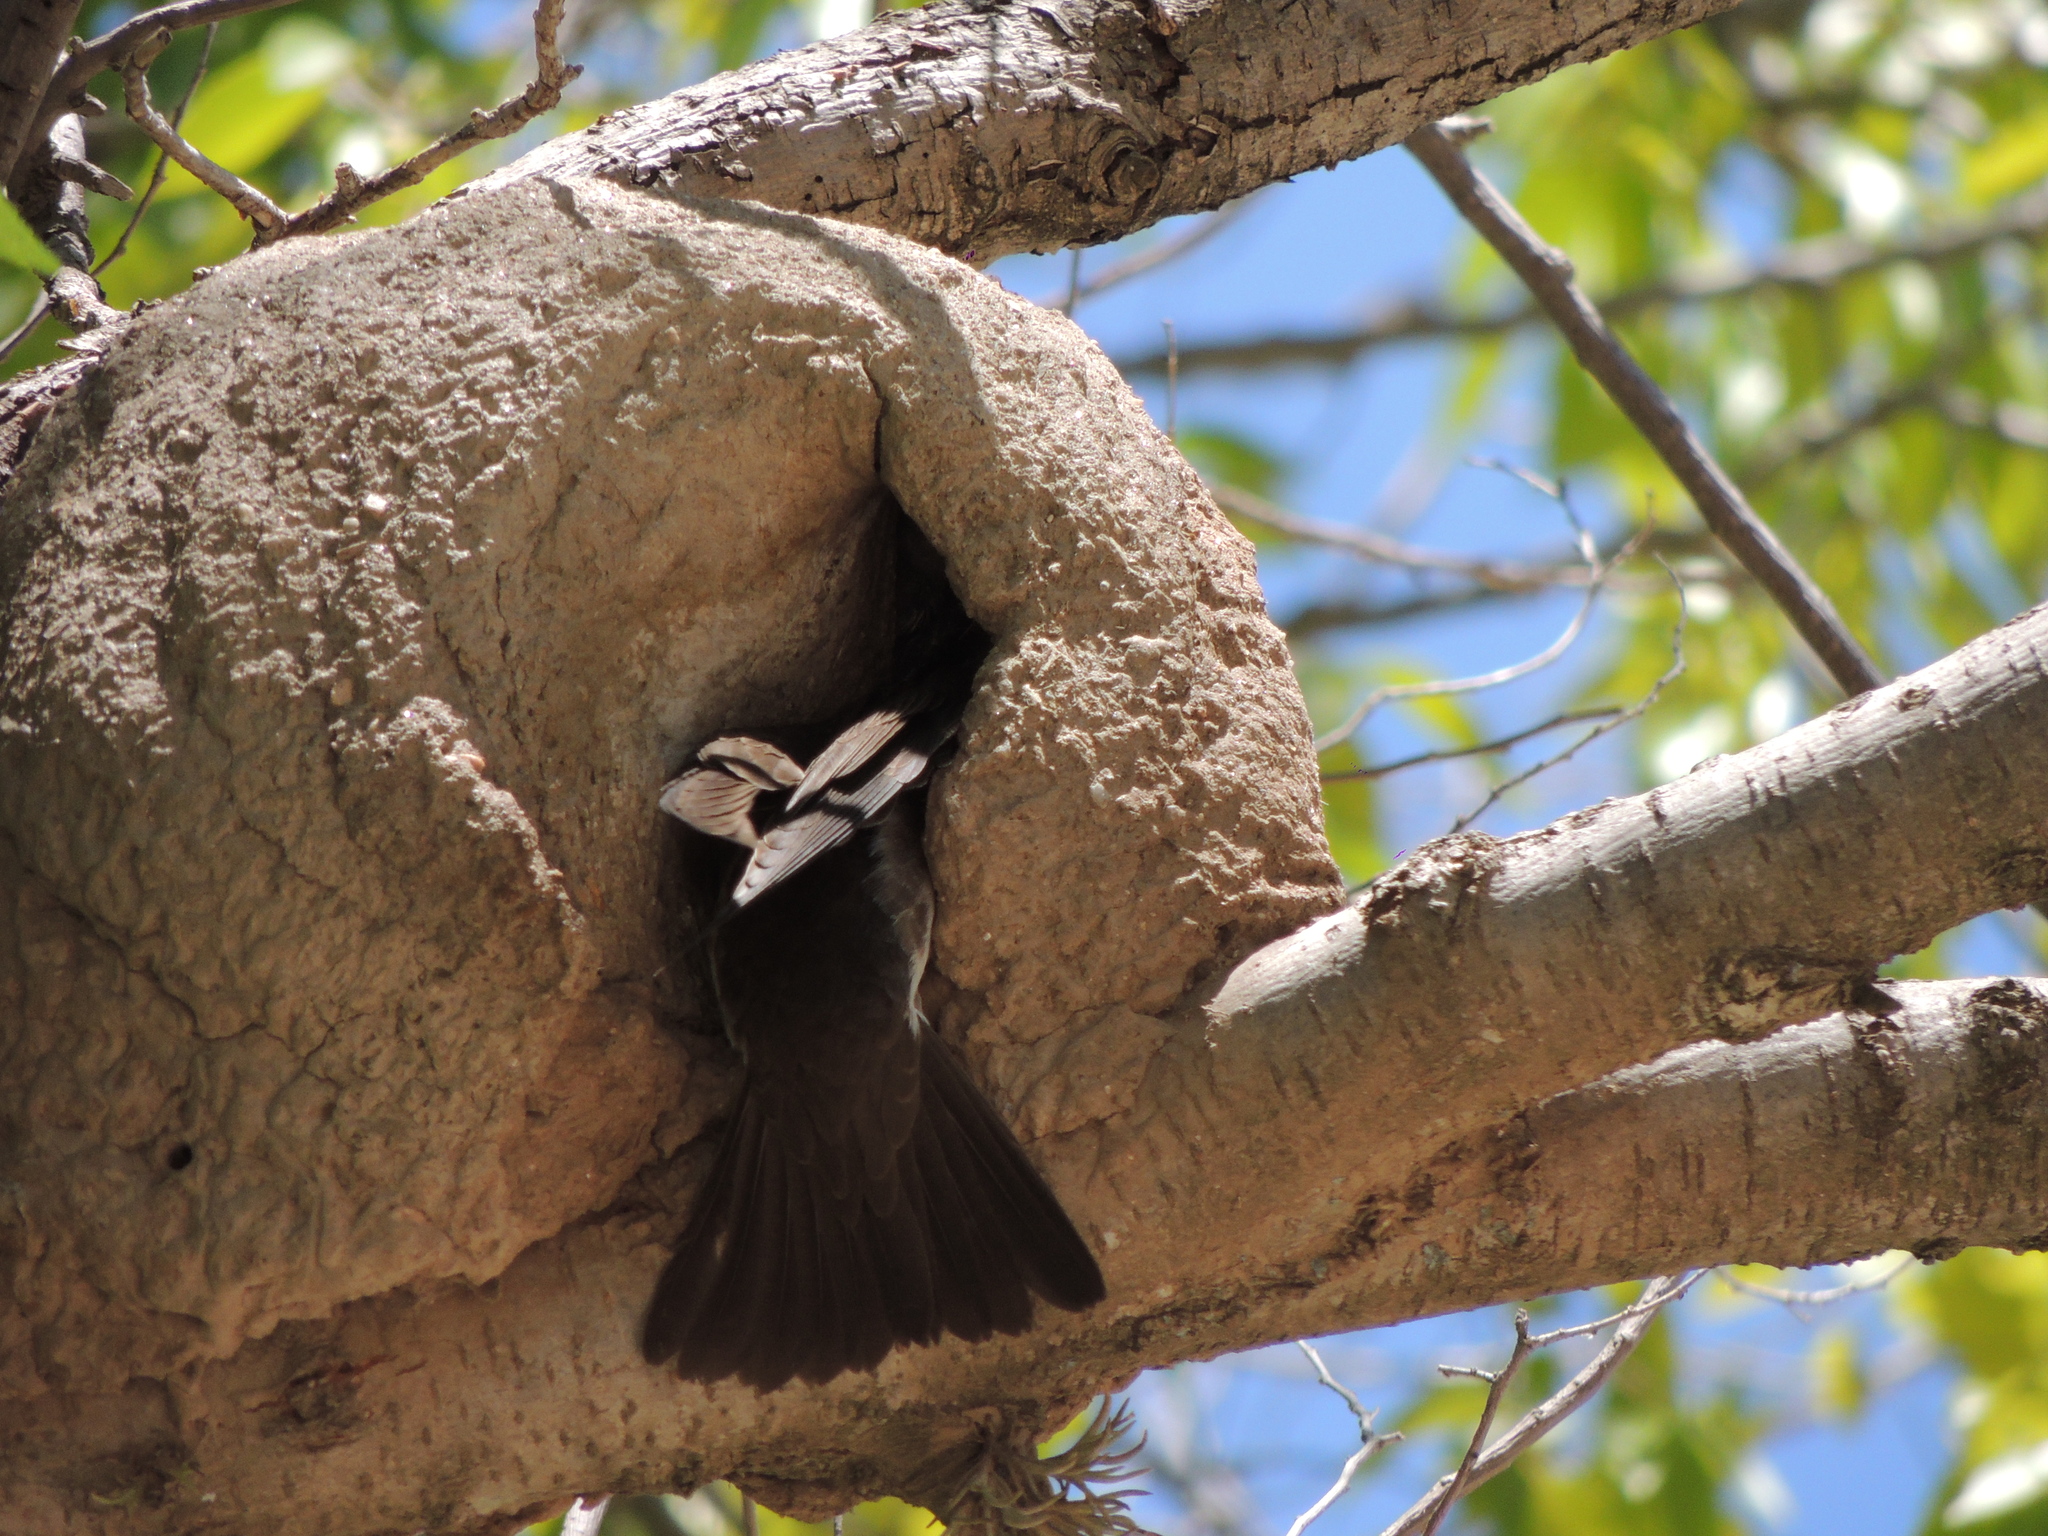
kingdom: Animalia
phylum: Chordata
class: Aves
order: Passeriformes
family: Hirundinidae
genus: Progne
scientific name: Progne tapera
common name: Brown-chested martin
